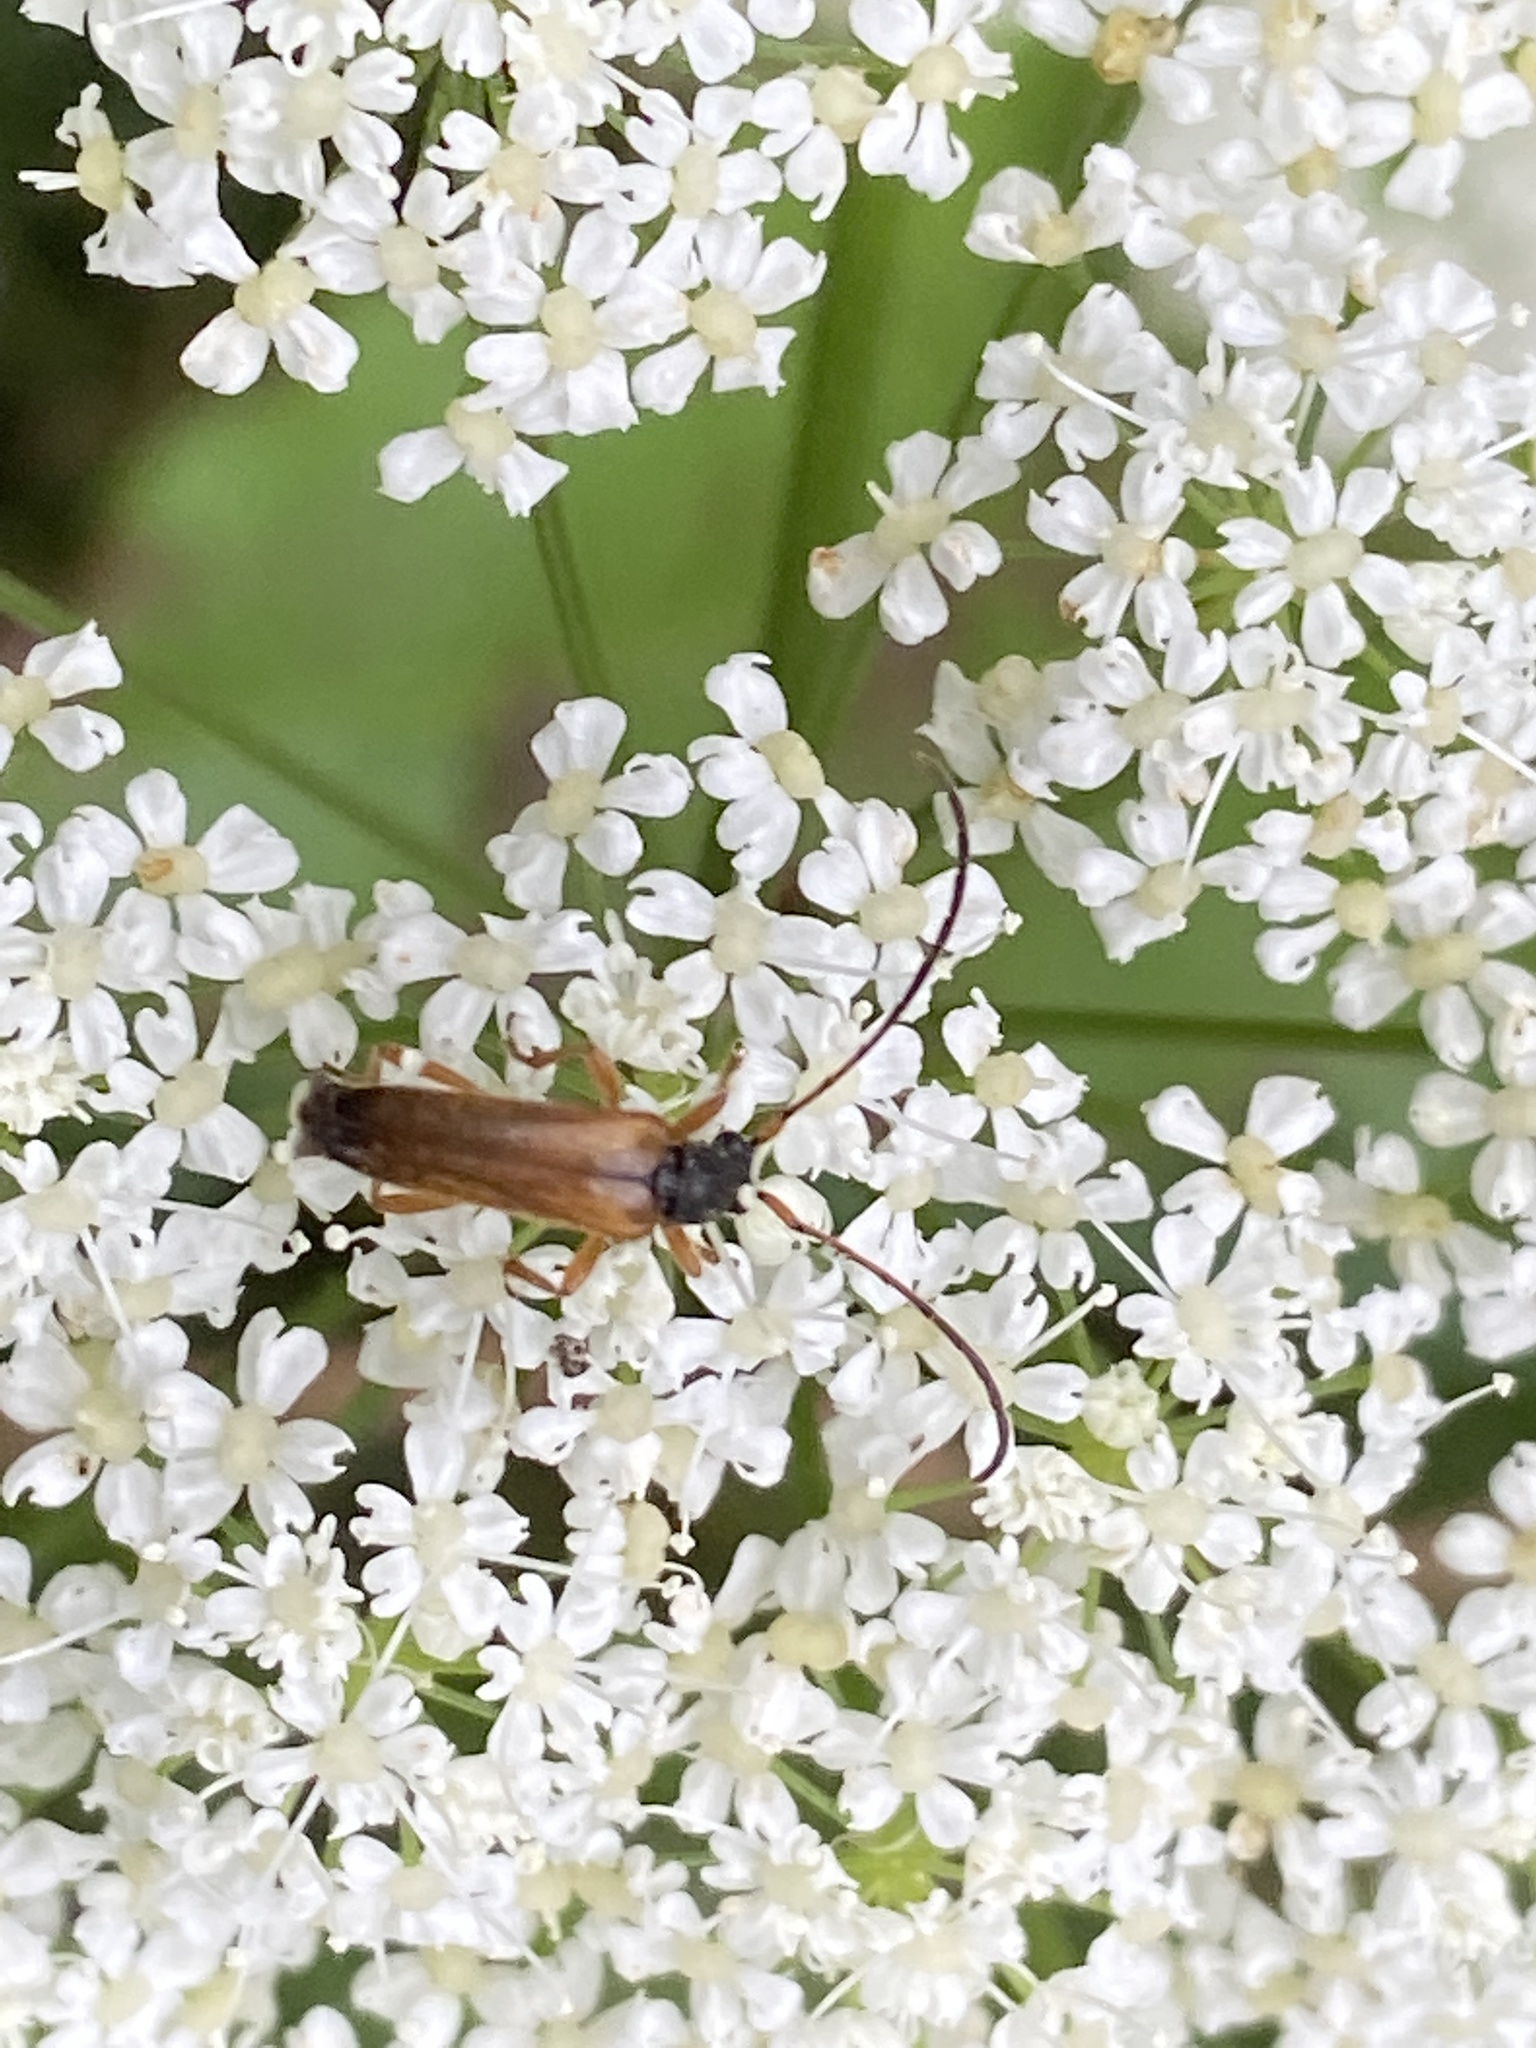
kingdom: Animalia
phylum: Arthropoda
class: Insecta
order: Coleoptera
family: Cerambycidae
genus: Alosterna
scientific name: Alosterna tabacicolor
